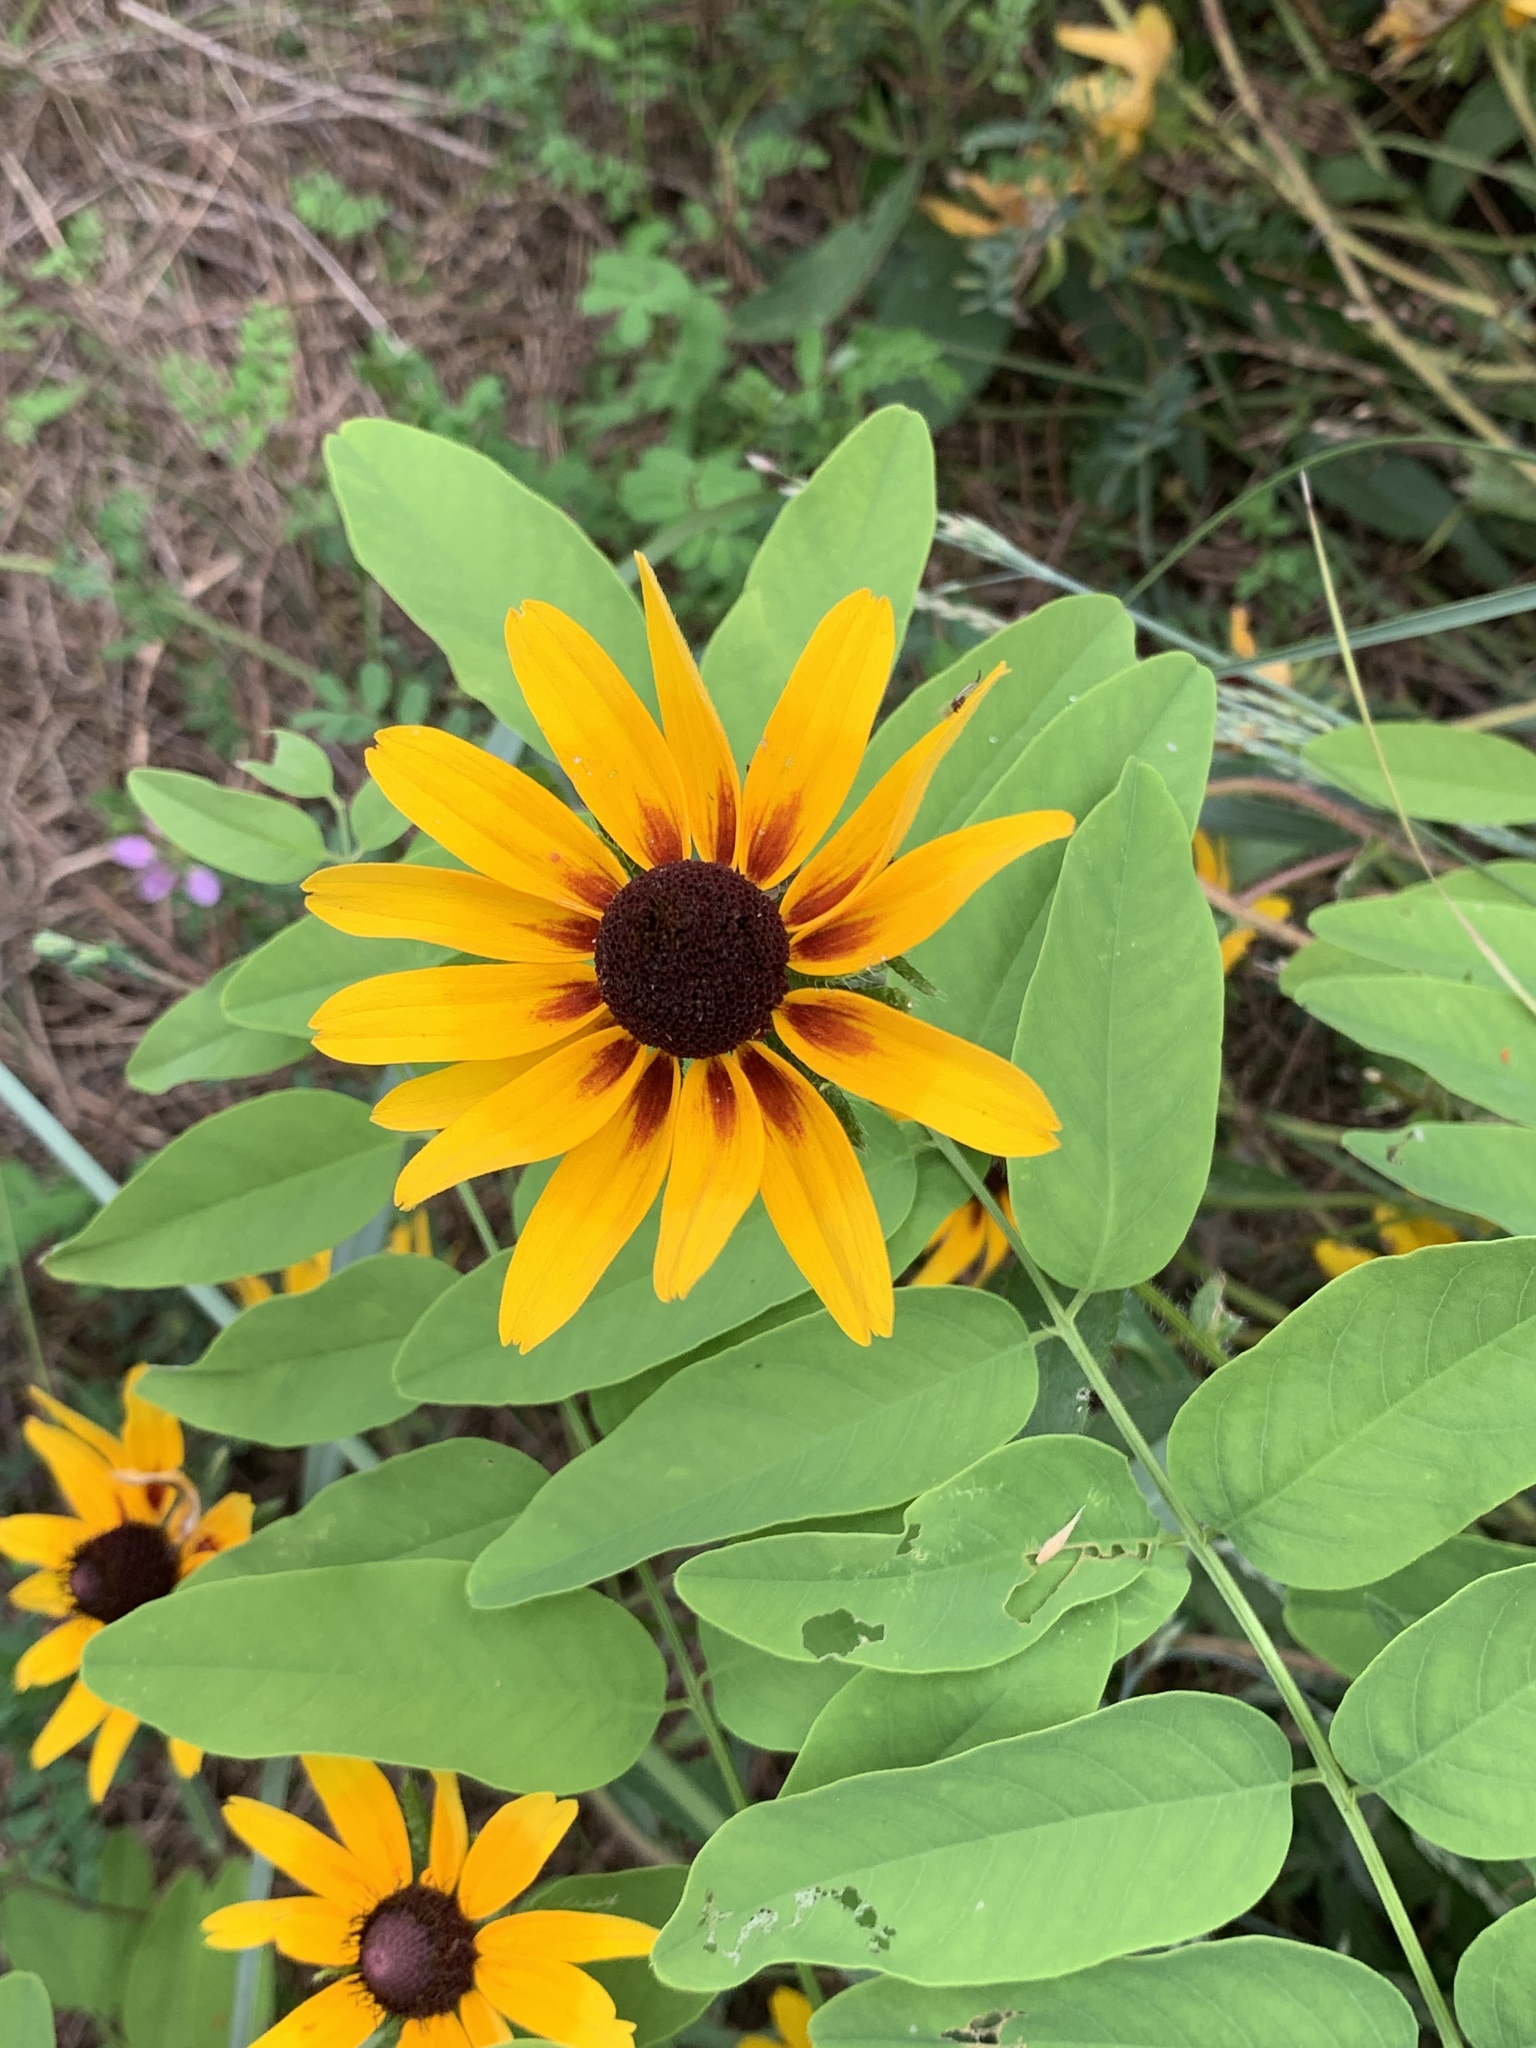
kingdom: Plantae
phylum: Tracheophyta
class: Magnoliopsida
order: Asterales
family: Asteraceae
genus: Rudbeckia
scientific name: Rudbeckia hirta
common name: Black-eyed-susan
